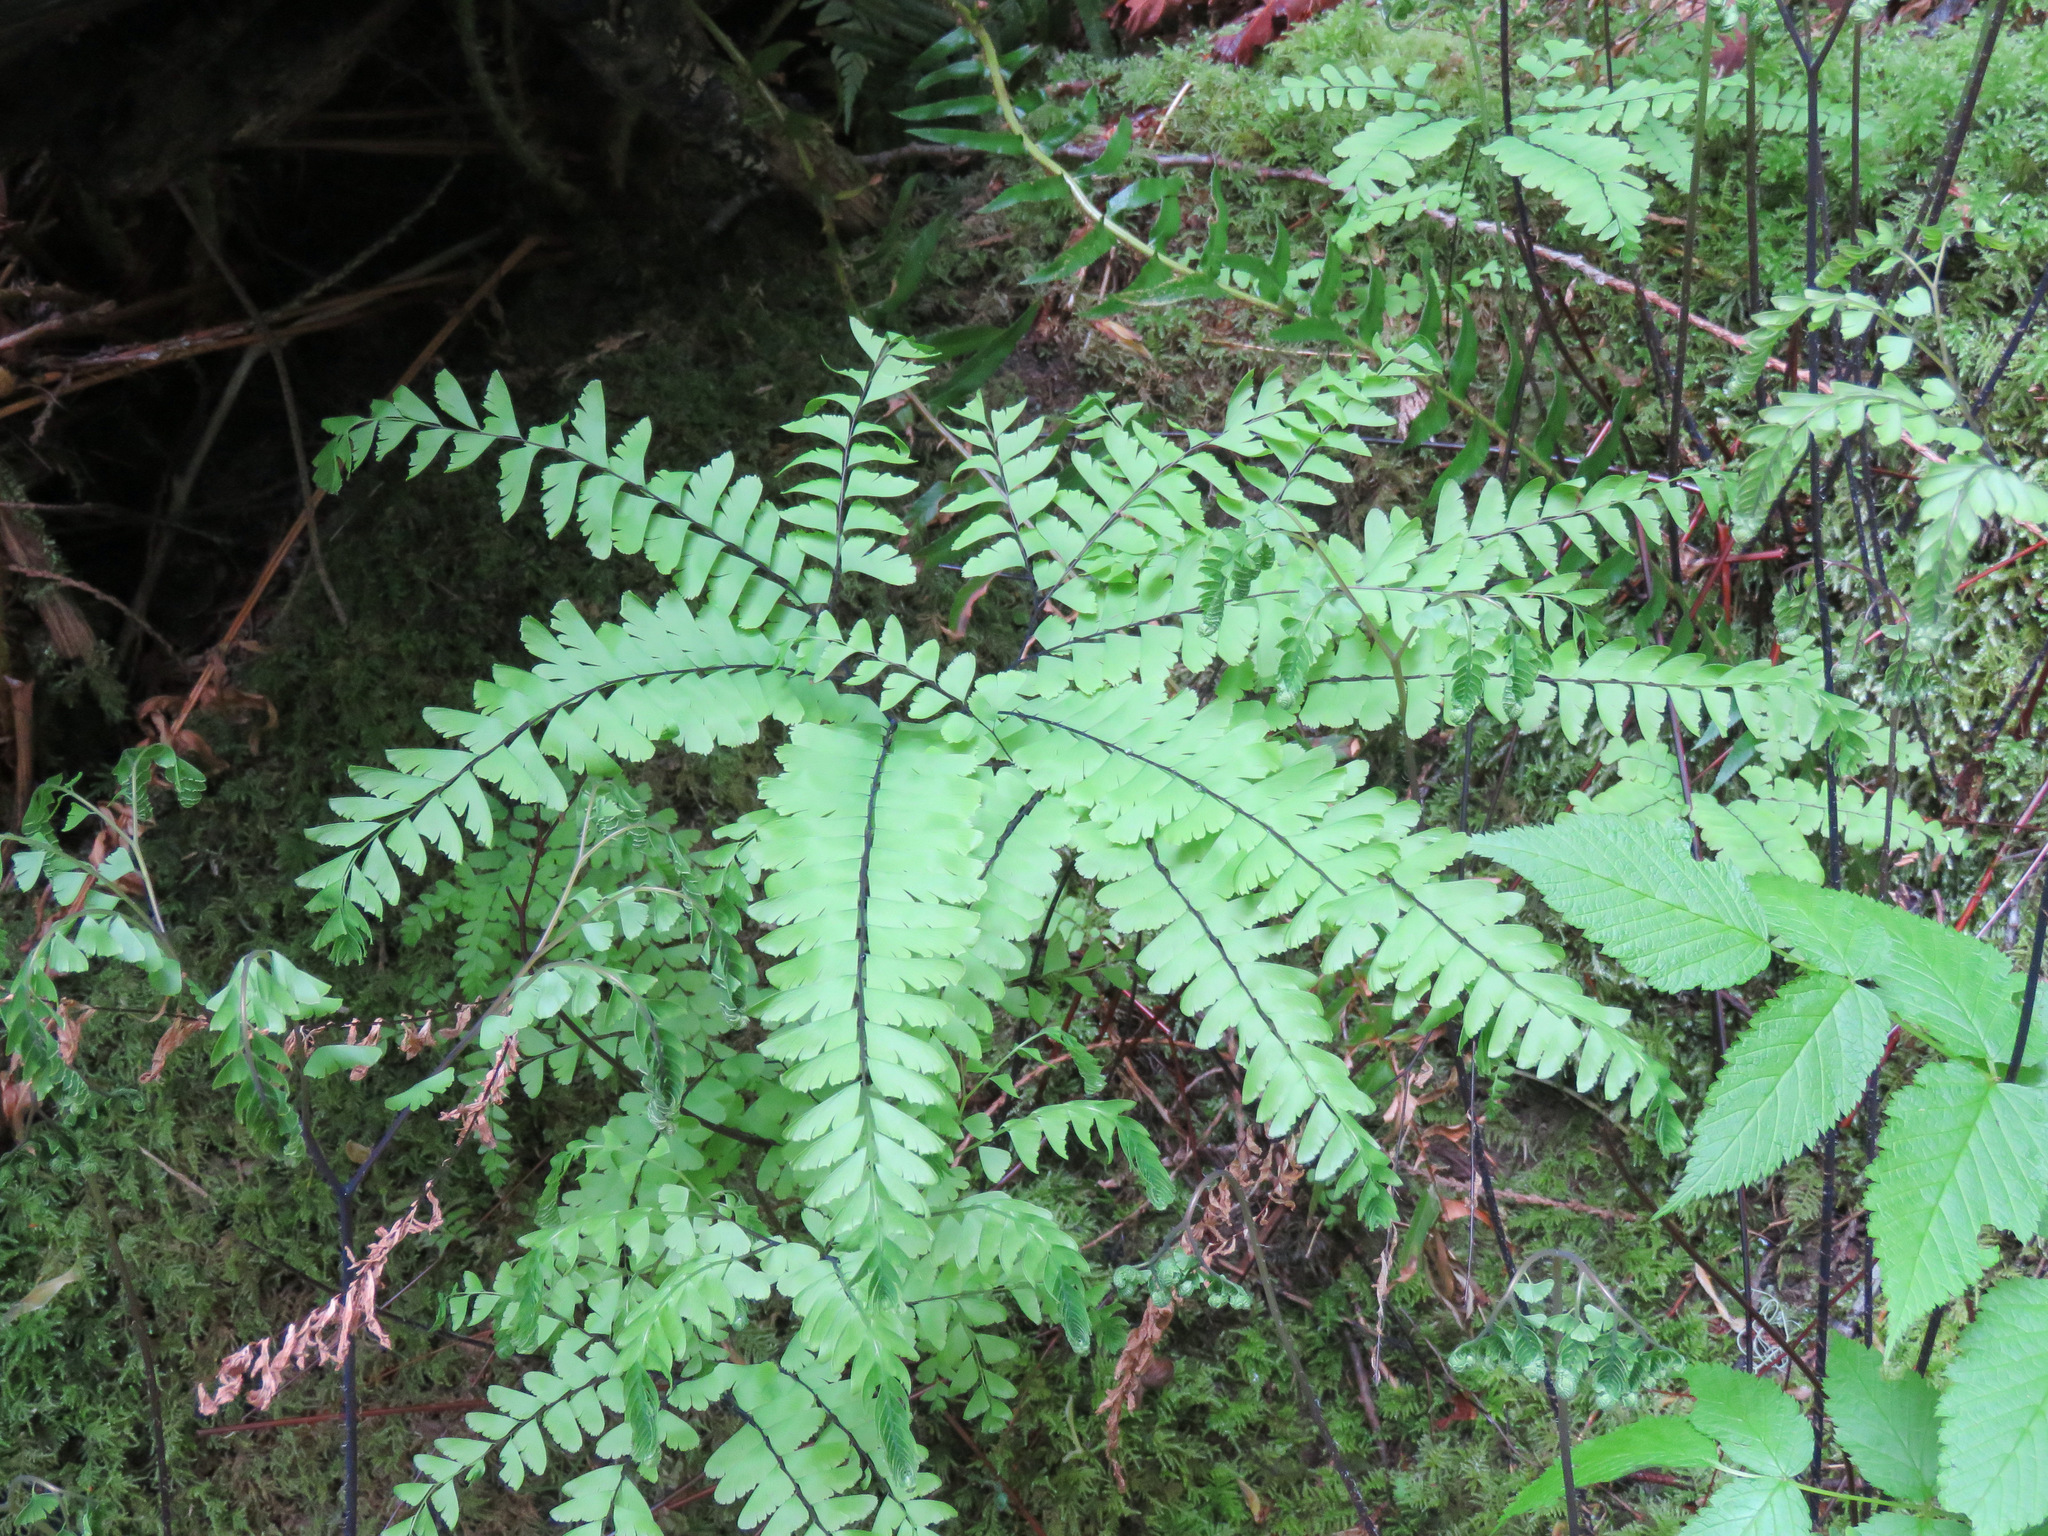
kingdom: Plantae
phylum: Tracheophyta
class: Polypodiopsida
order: Polypodiales
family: Pteridaceae
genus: Adiantum
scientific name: Adiantum aleuticum
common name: Aleutian maidenhair fern
